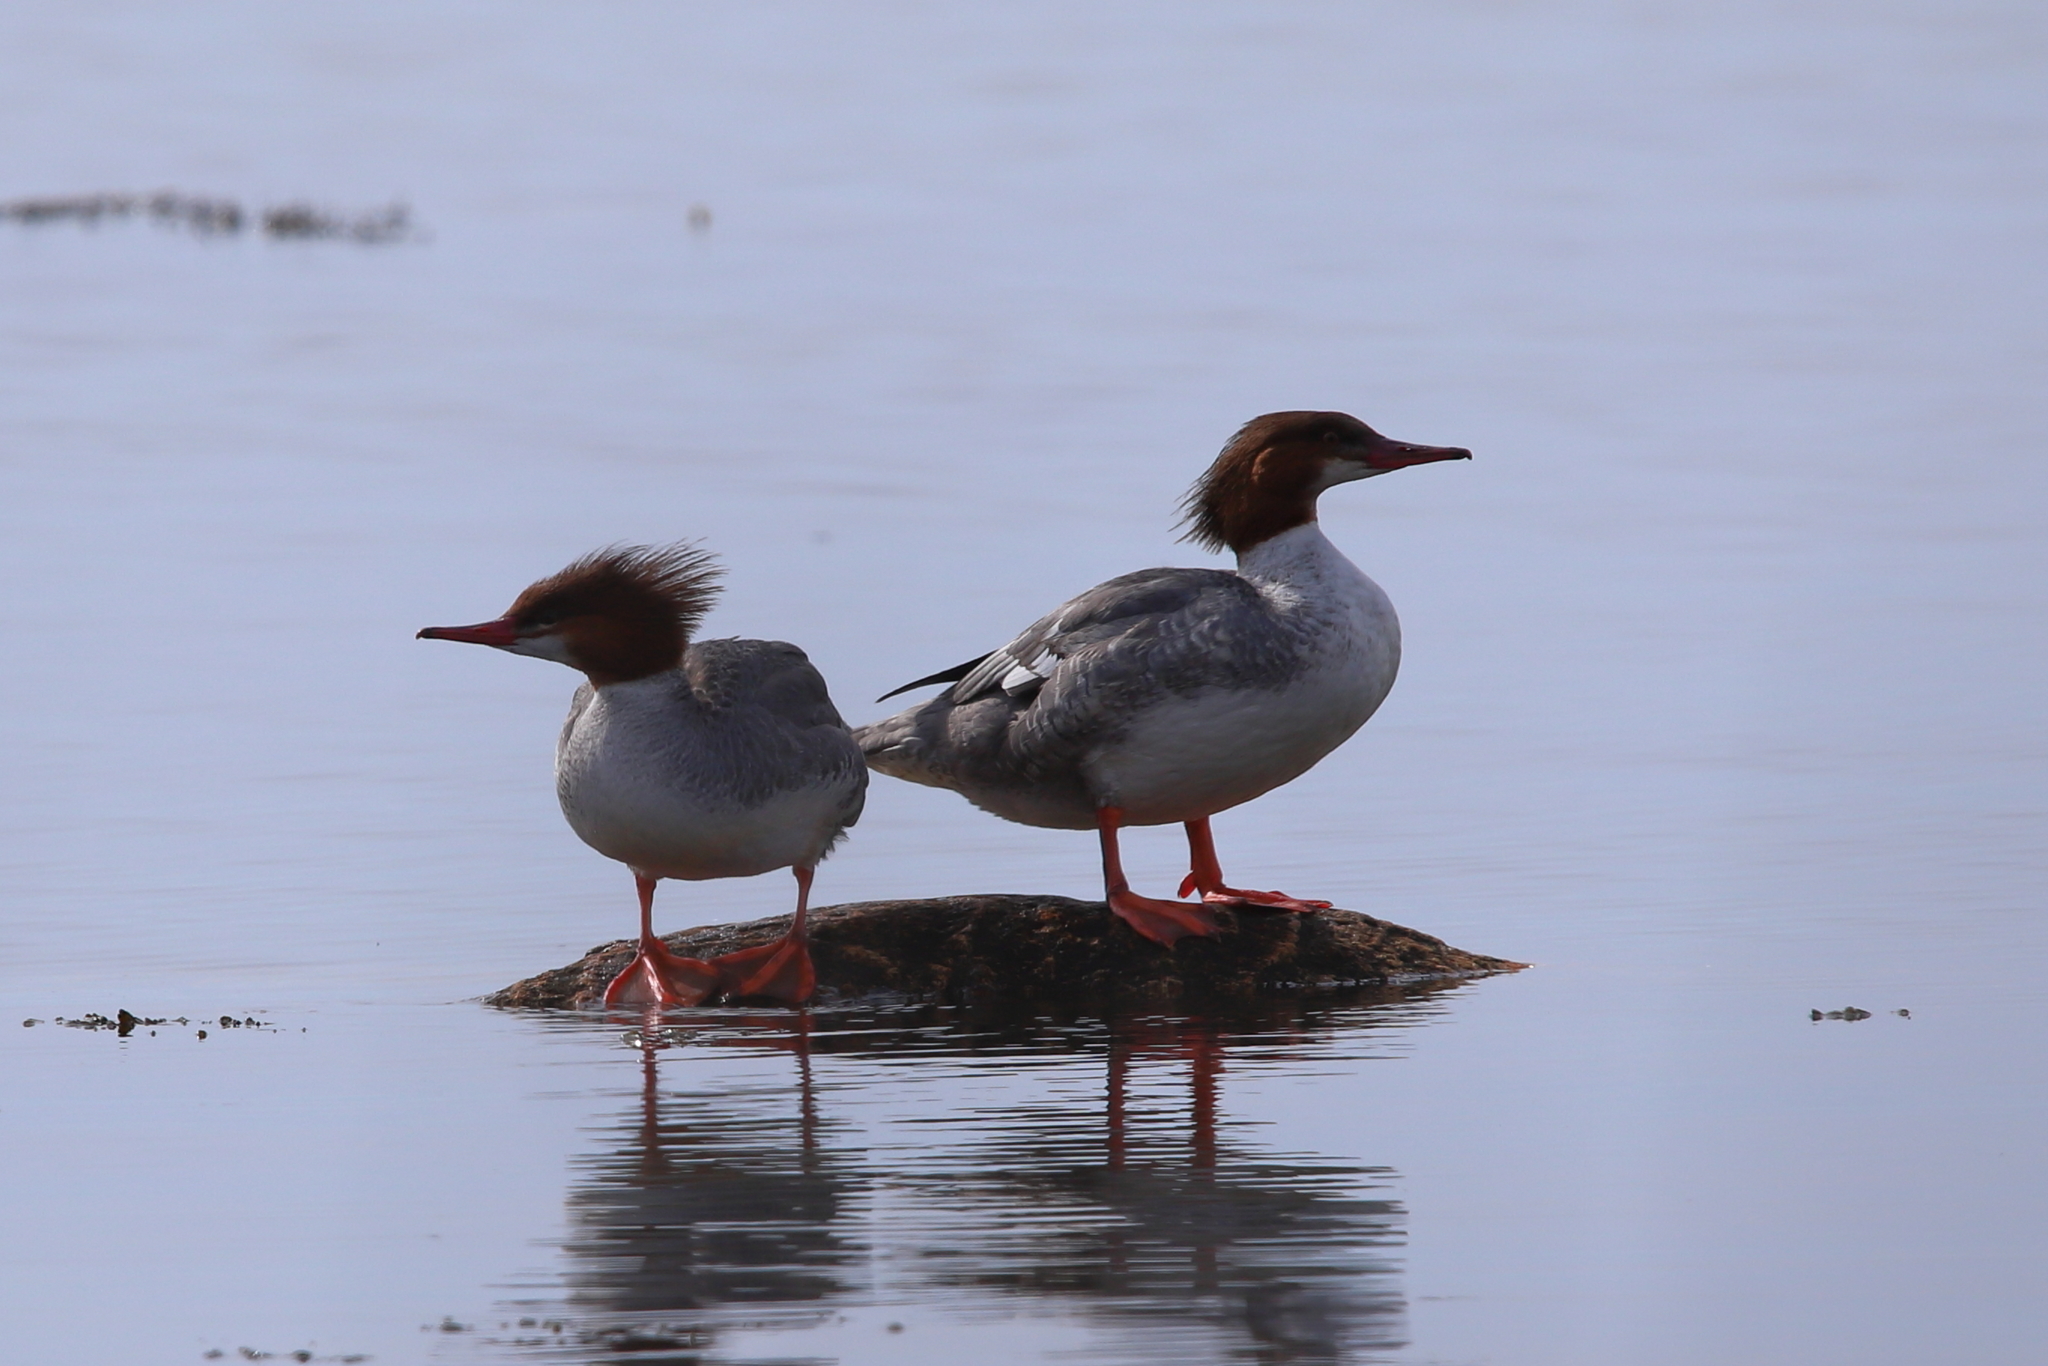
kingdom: Animalia
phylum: Chordata
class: Aves
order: Anseriformes
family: Anatidae
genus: Mergus
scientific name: Mergus merganser
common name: Common merganser
